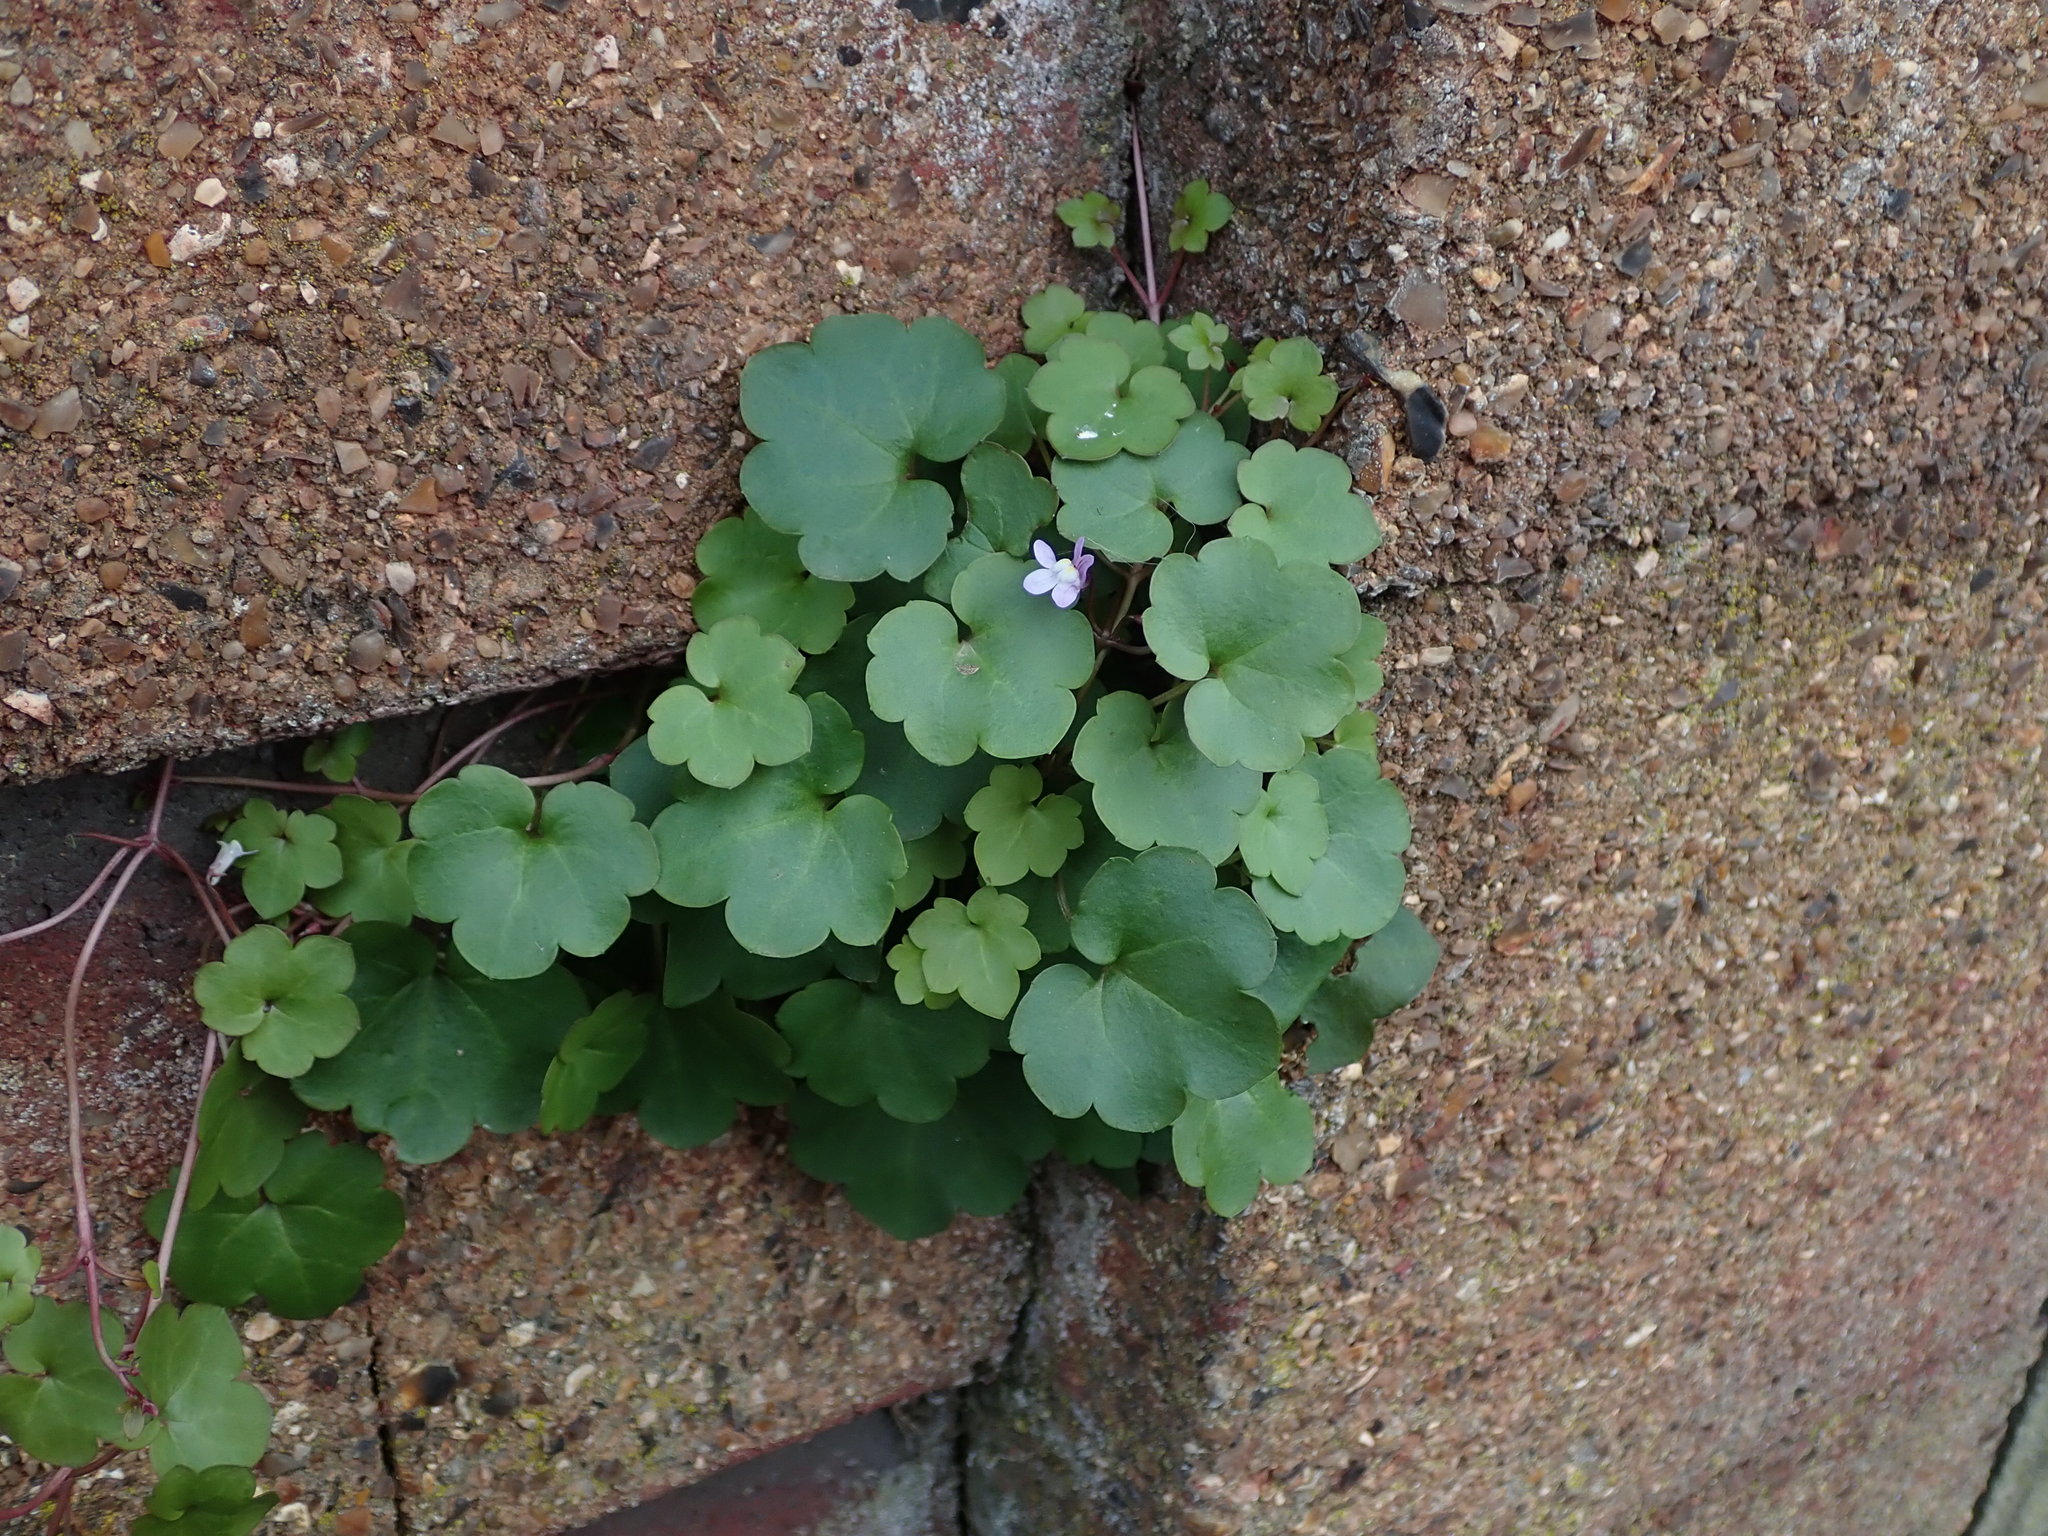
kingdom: Plantae
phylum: Tracheophyta
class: Magnoliopsida
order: Lamiales
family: Plantaginaceae
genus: Cymbalaria
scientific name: Cymbalaria muralis
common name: Ivy-leaved toadflax
